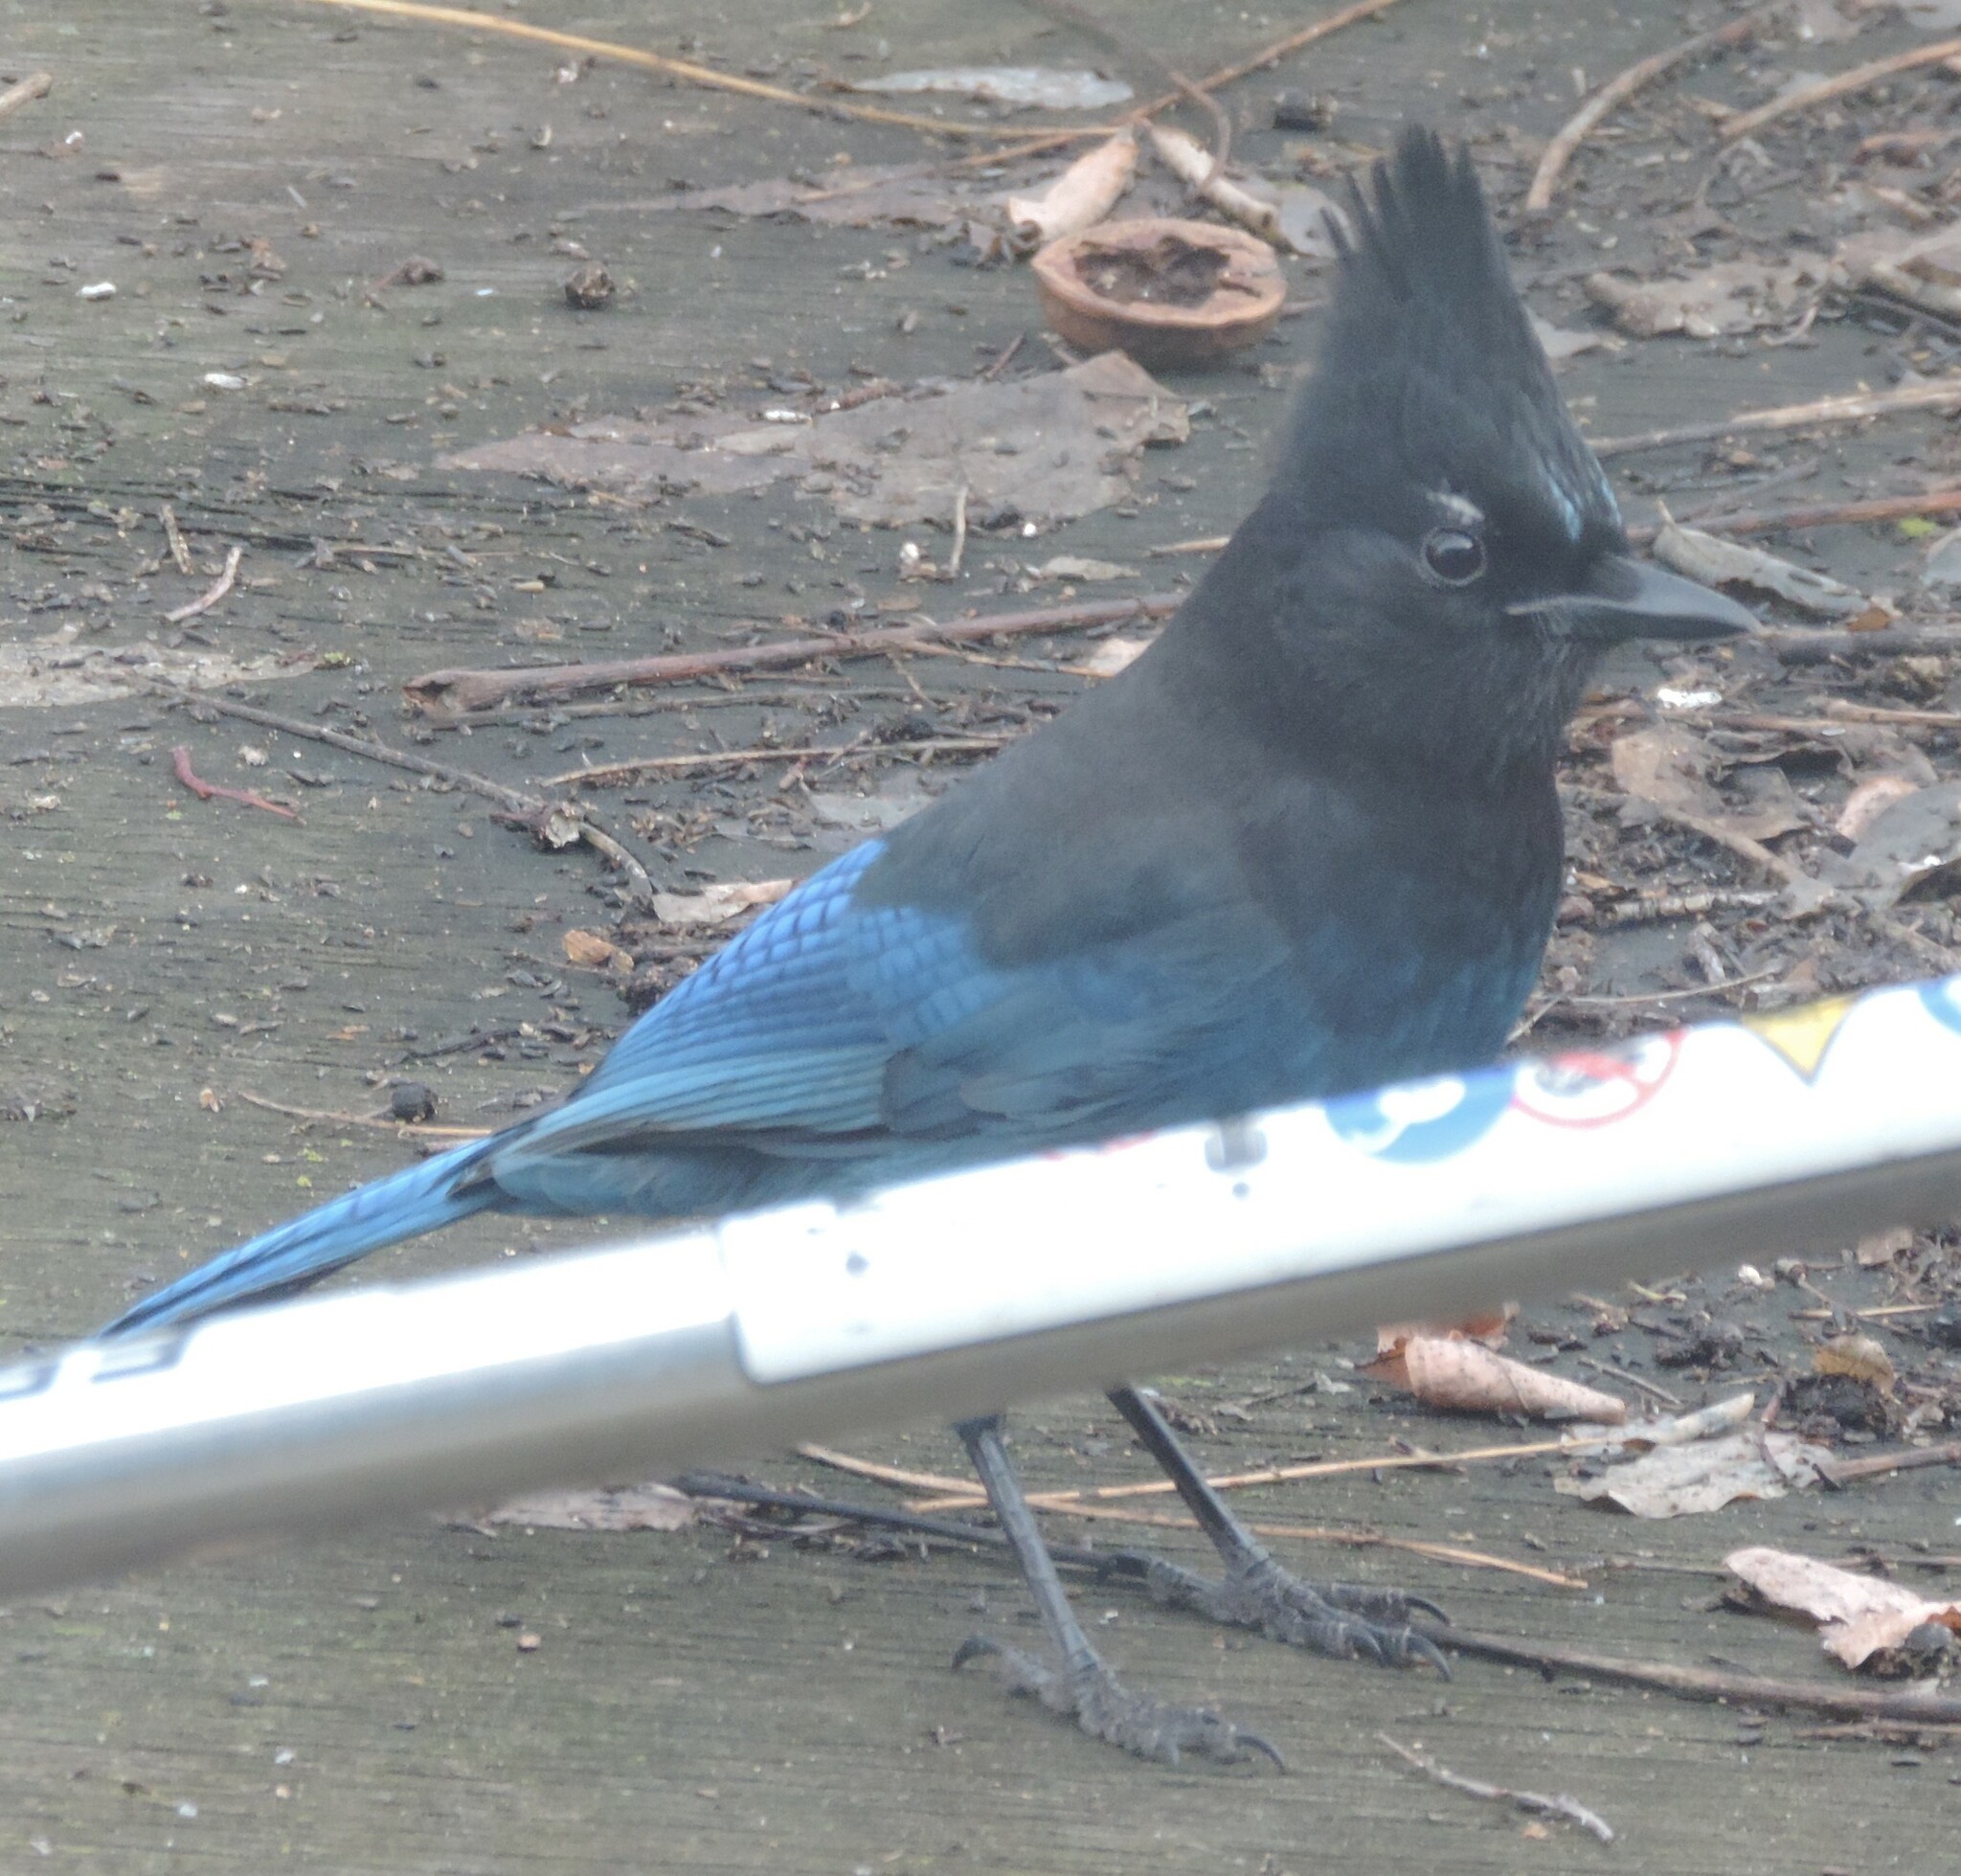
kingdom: Animalia
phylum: Chordata
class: Aves
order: Passeriformes
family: Corvidae
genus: Cyanocitta
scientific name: Cyanocitta stelleri
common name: Steller's jay
